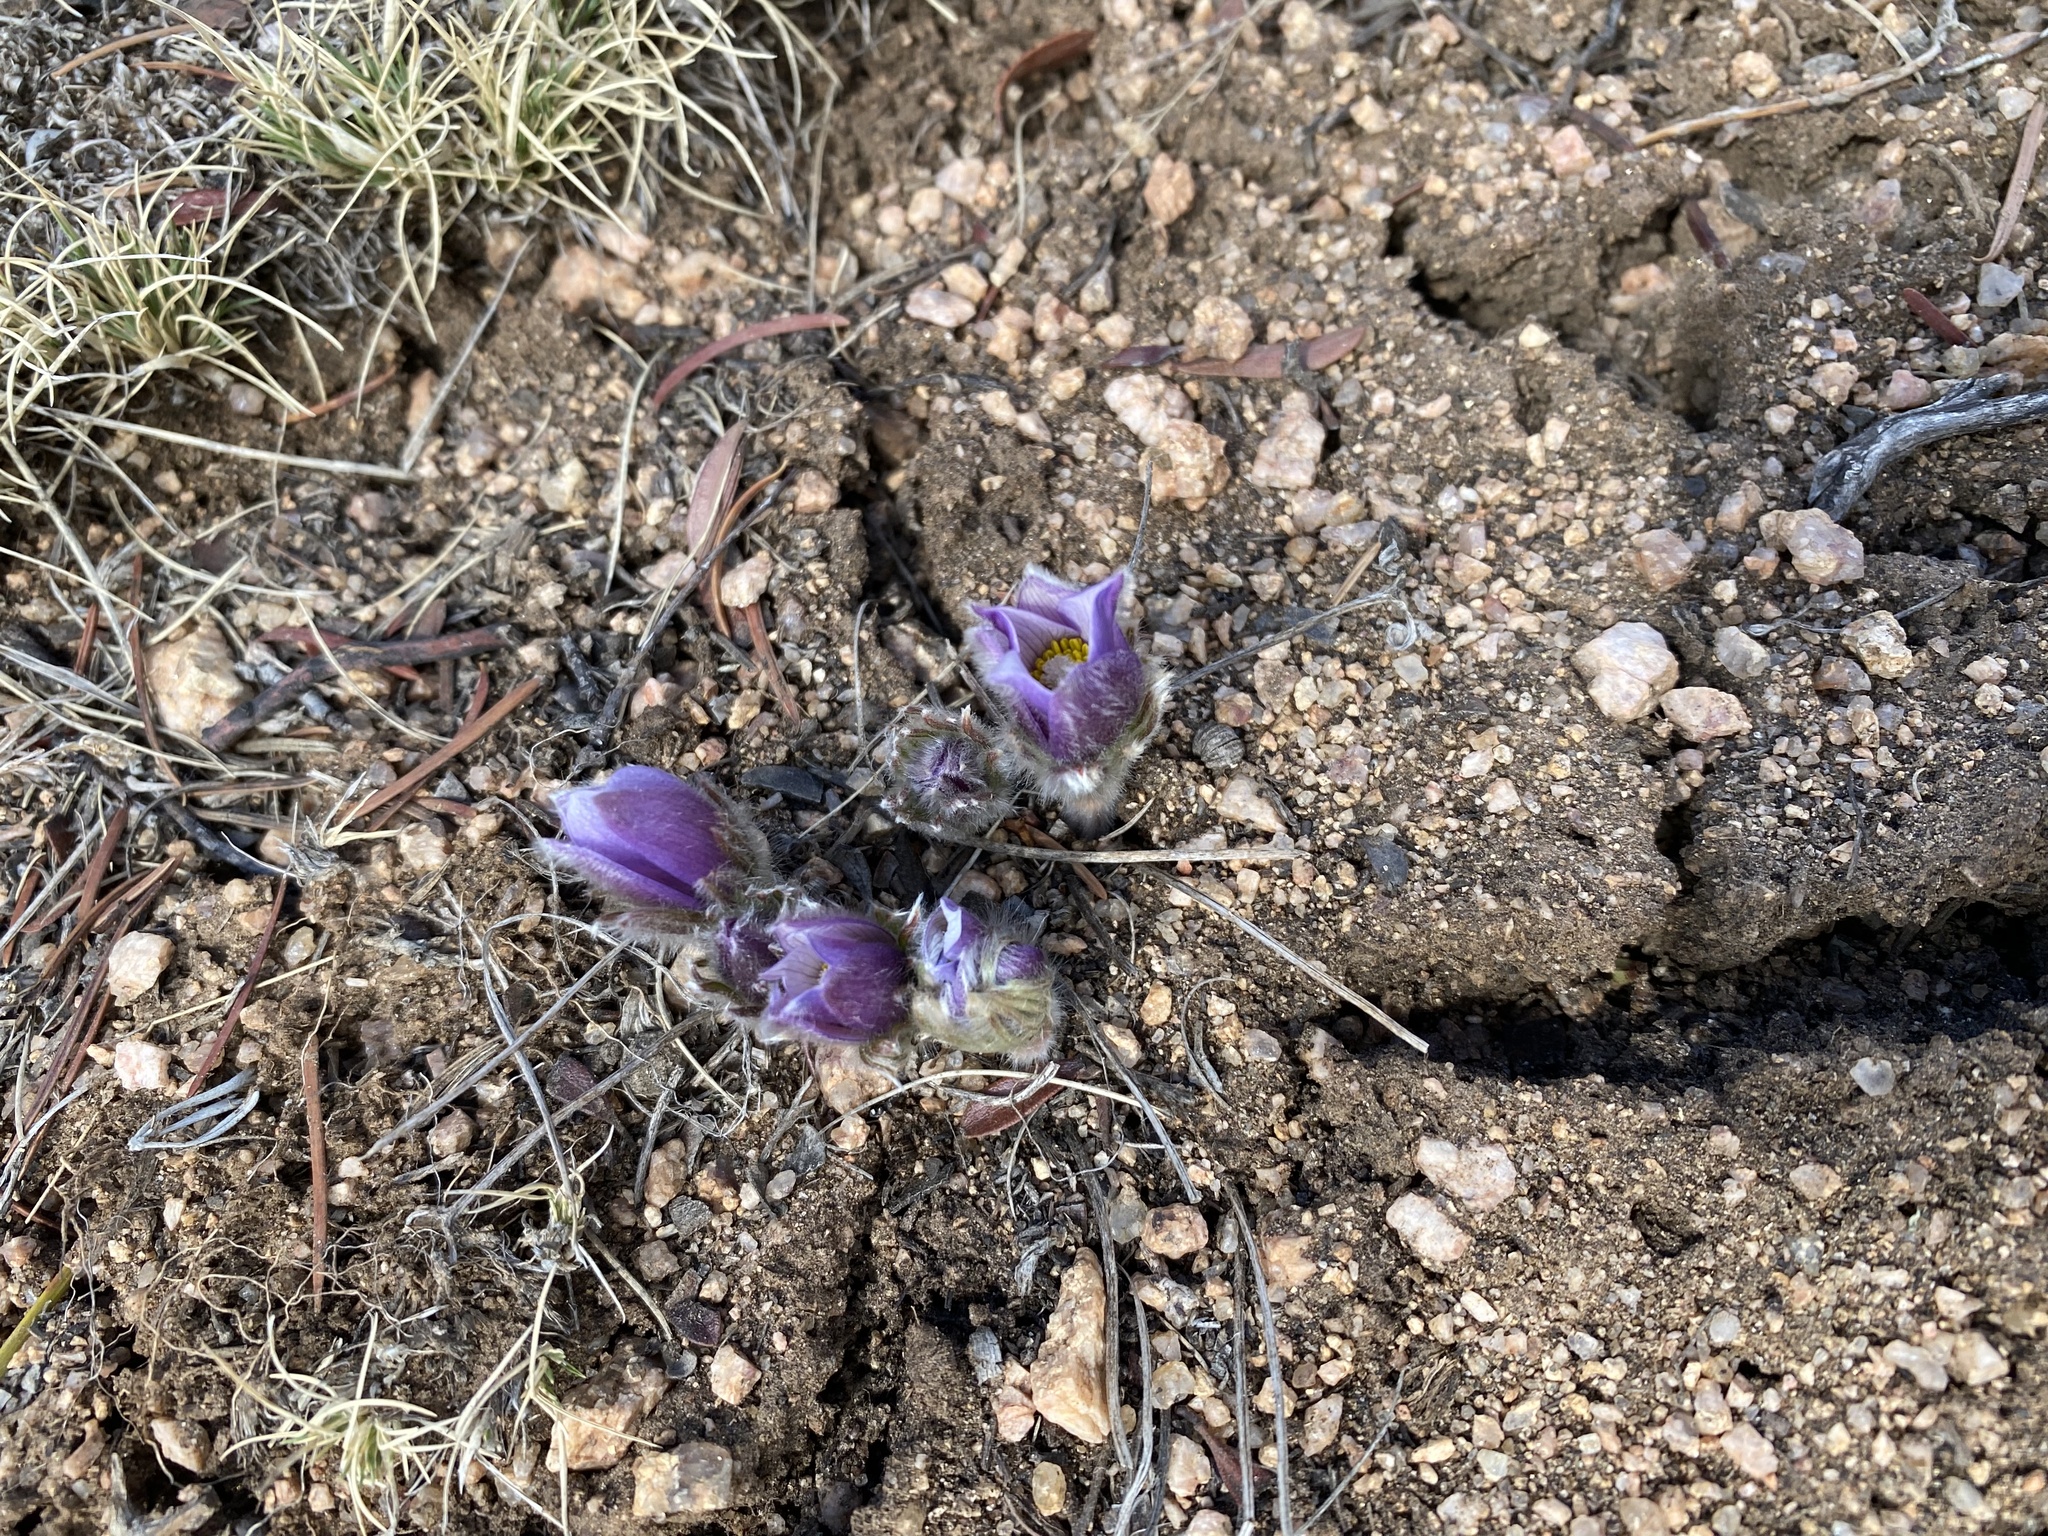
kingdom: Plantae
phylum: Tracheophyta
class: Magnoliopsida
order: Ranunculales
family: Ranunculaceae
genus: Pulsatilla
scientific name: Pulsatilla nuttalliana
